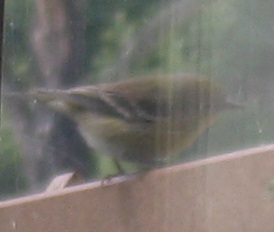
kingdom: Animalia
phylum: Chordata
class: Aves
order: Passeriformes
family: Parulidae
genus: Setophaga
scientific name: Setophaga pinus
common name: Pine warbler
